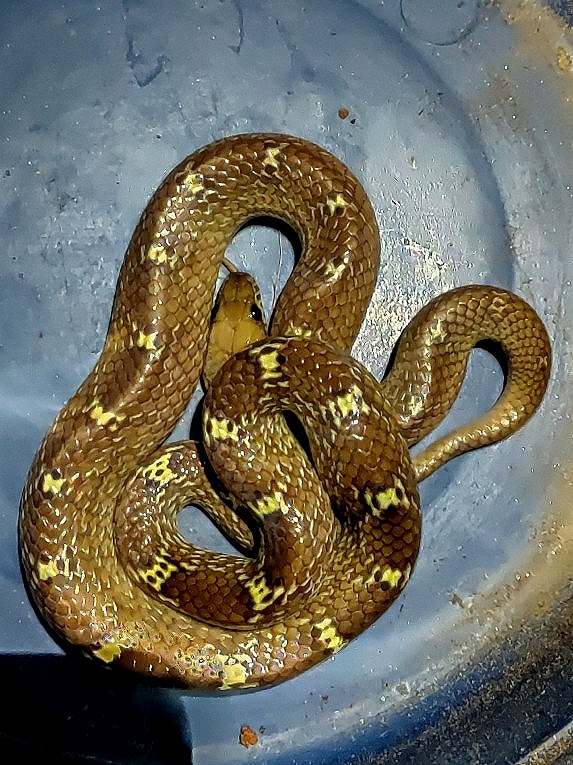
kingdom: Animalia
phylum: Chordata
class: Squamata
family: Colubridae
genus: Lycodon
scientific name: Lycodon fasciolatus
